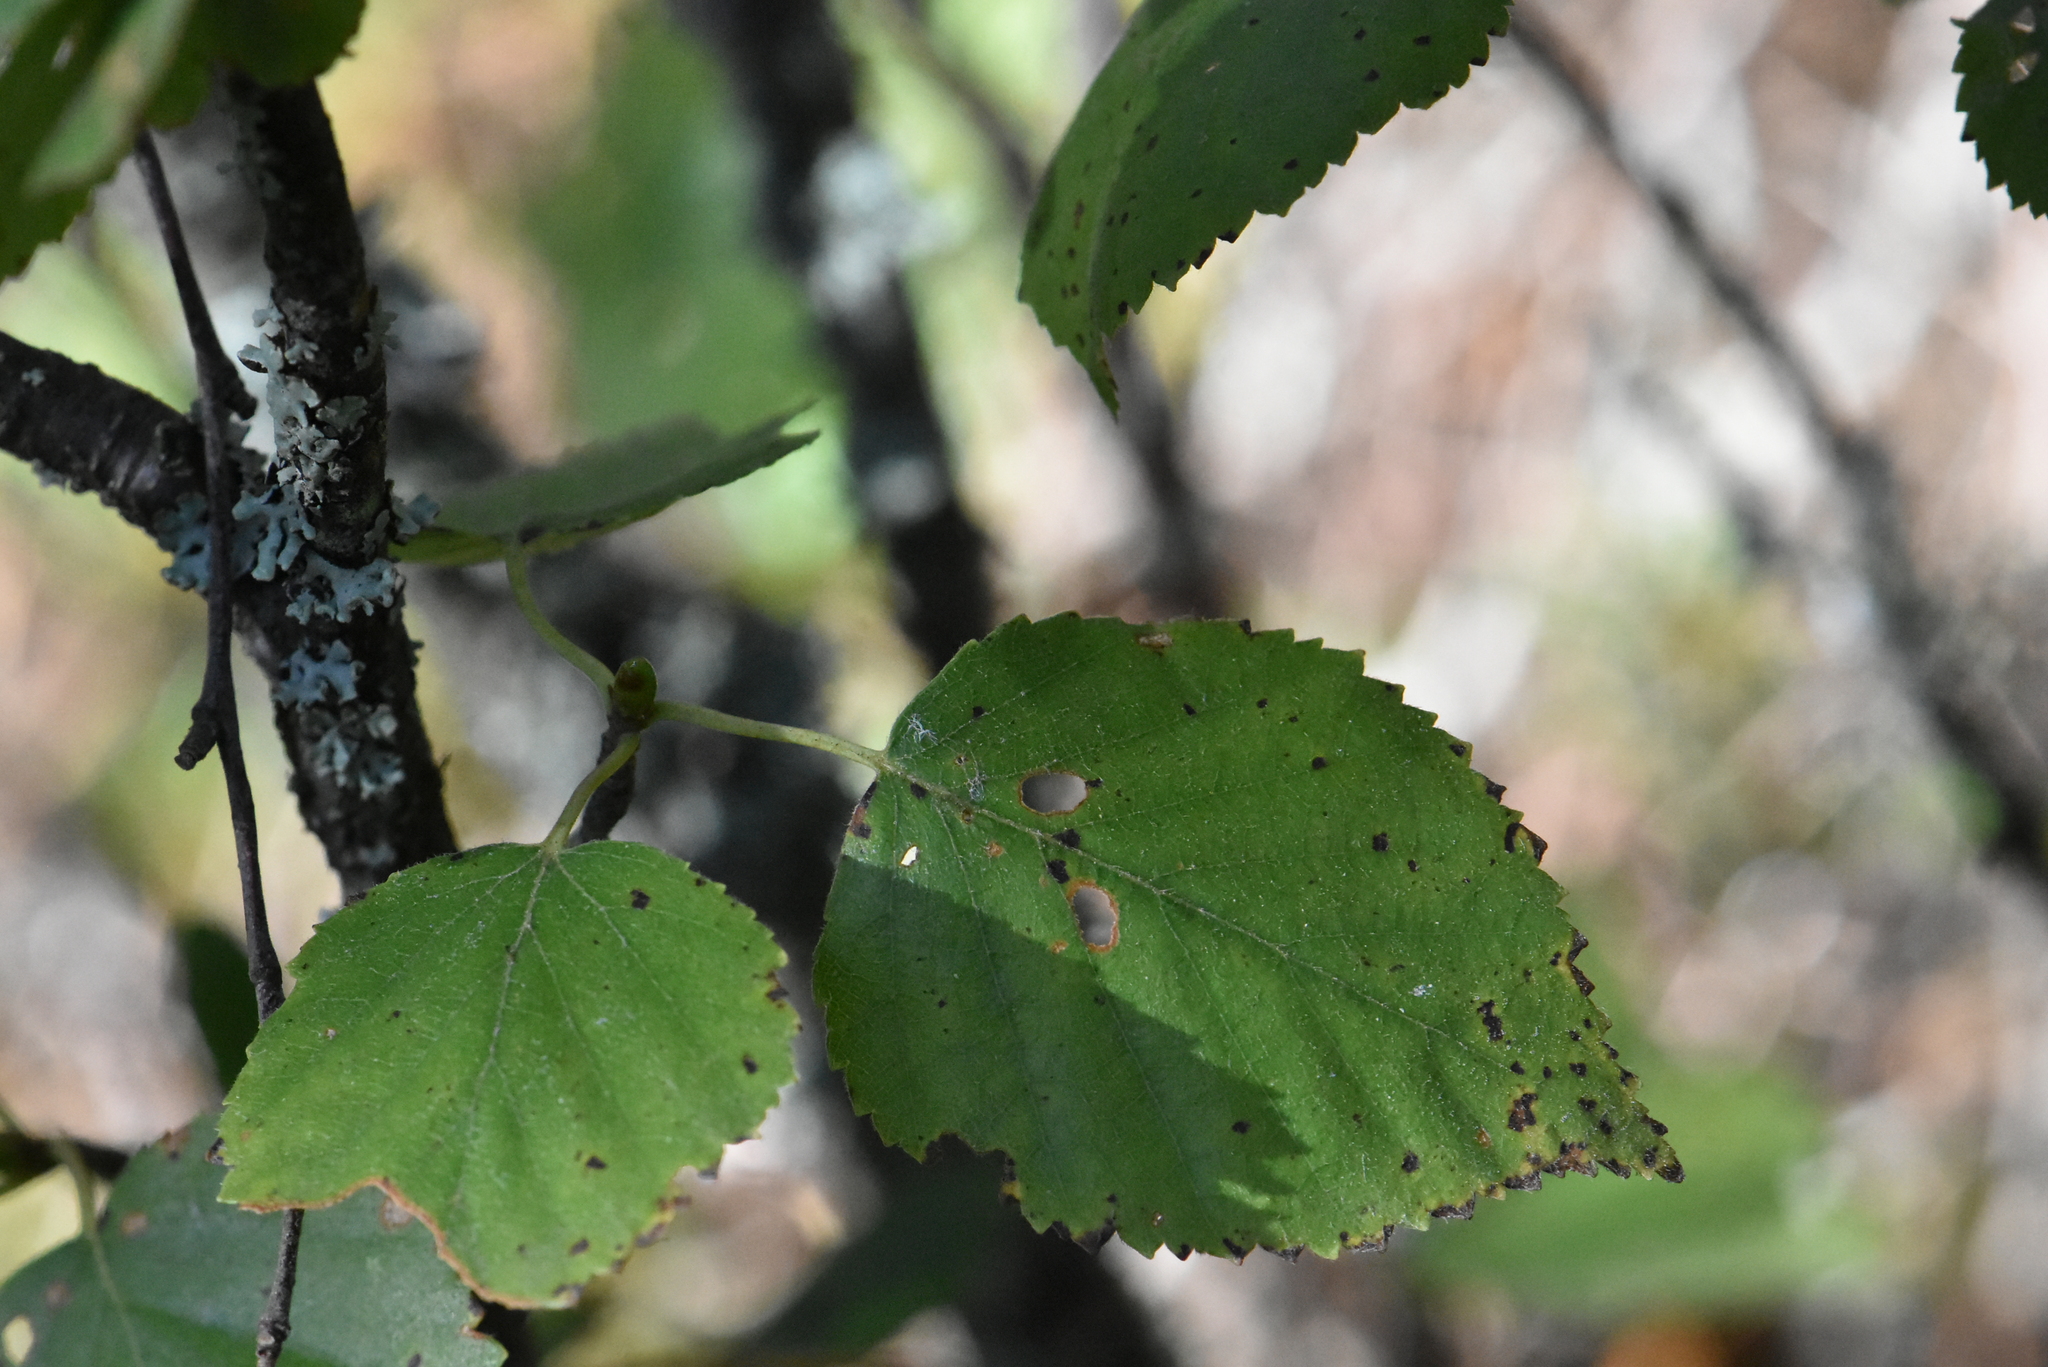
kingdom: Plantae
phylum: Tracheophyta
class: Magnoliopsida
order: Fagales
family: Betulaceae
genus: Betula
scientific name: Betula pubescens
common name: Downy birch
